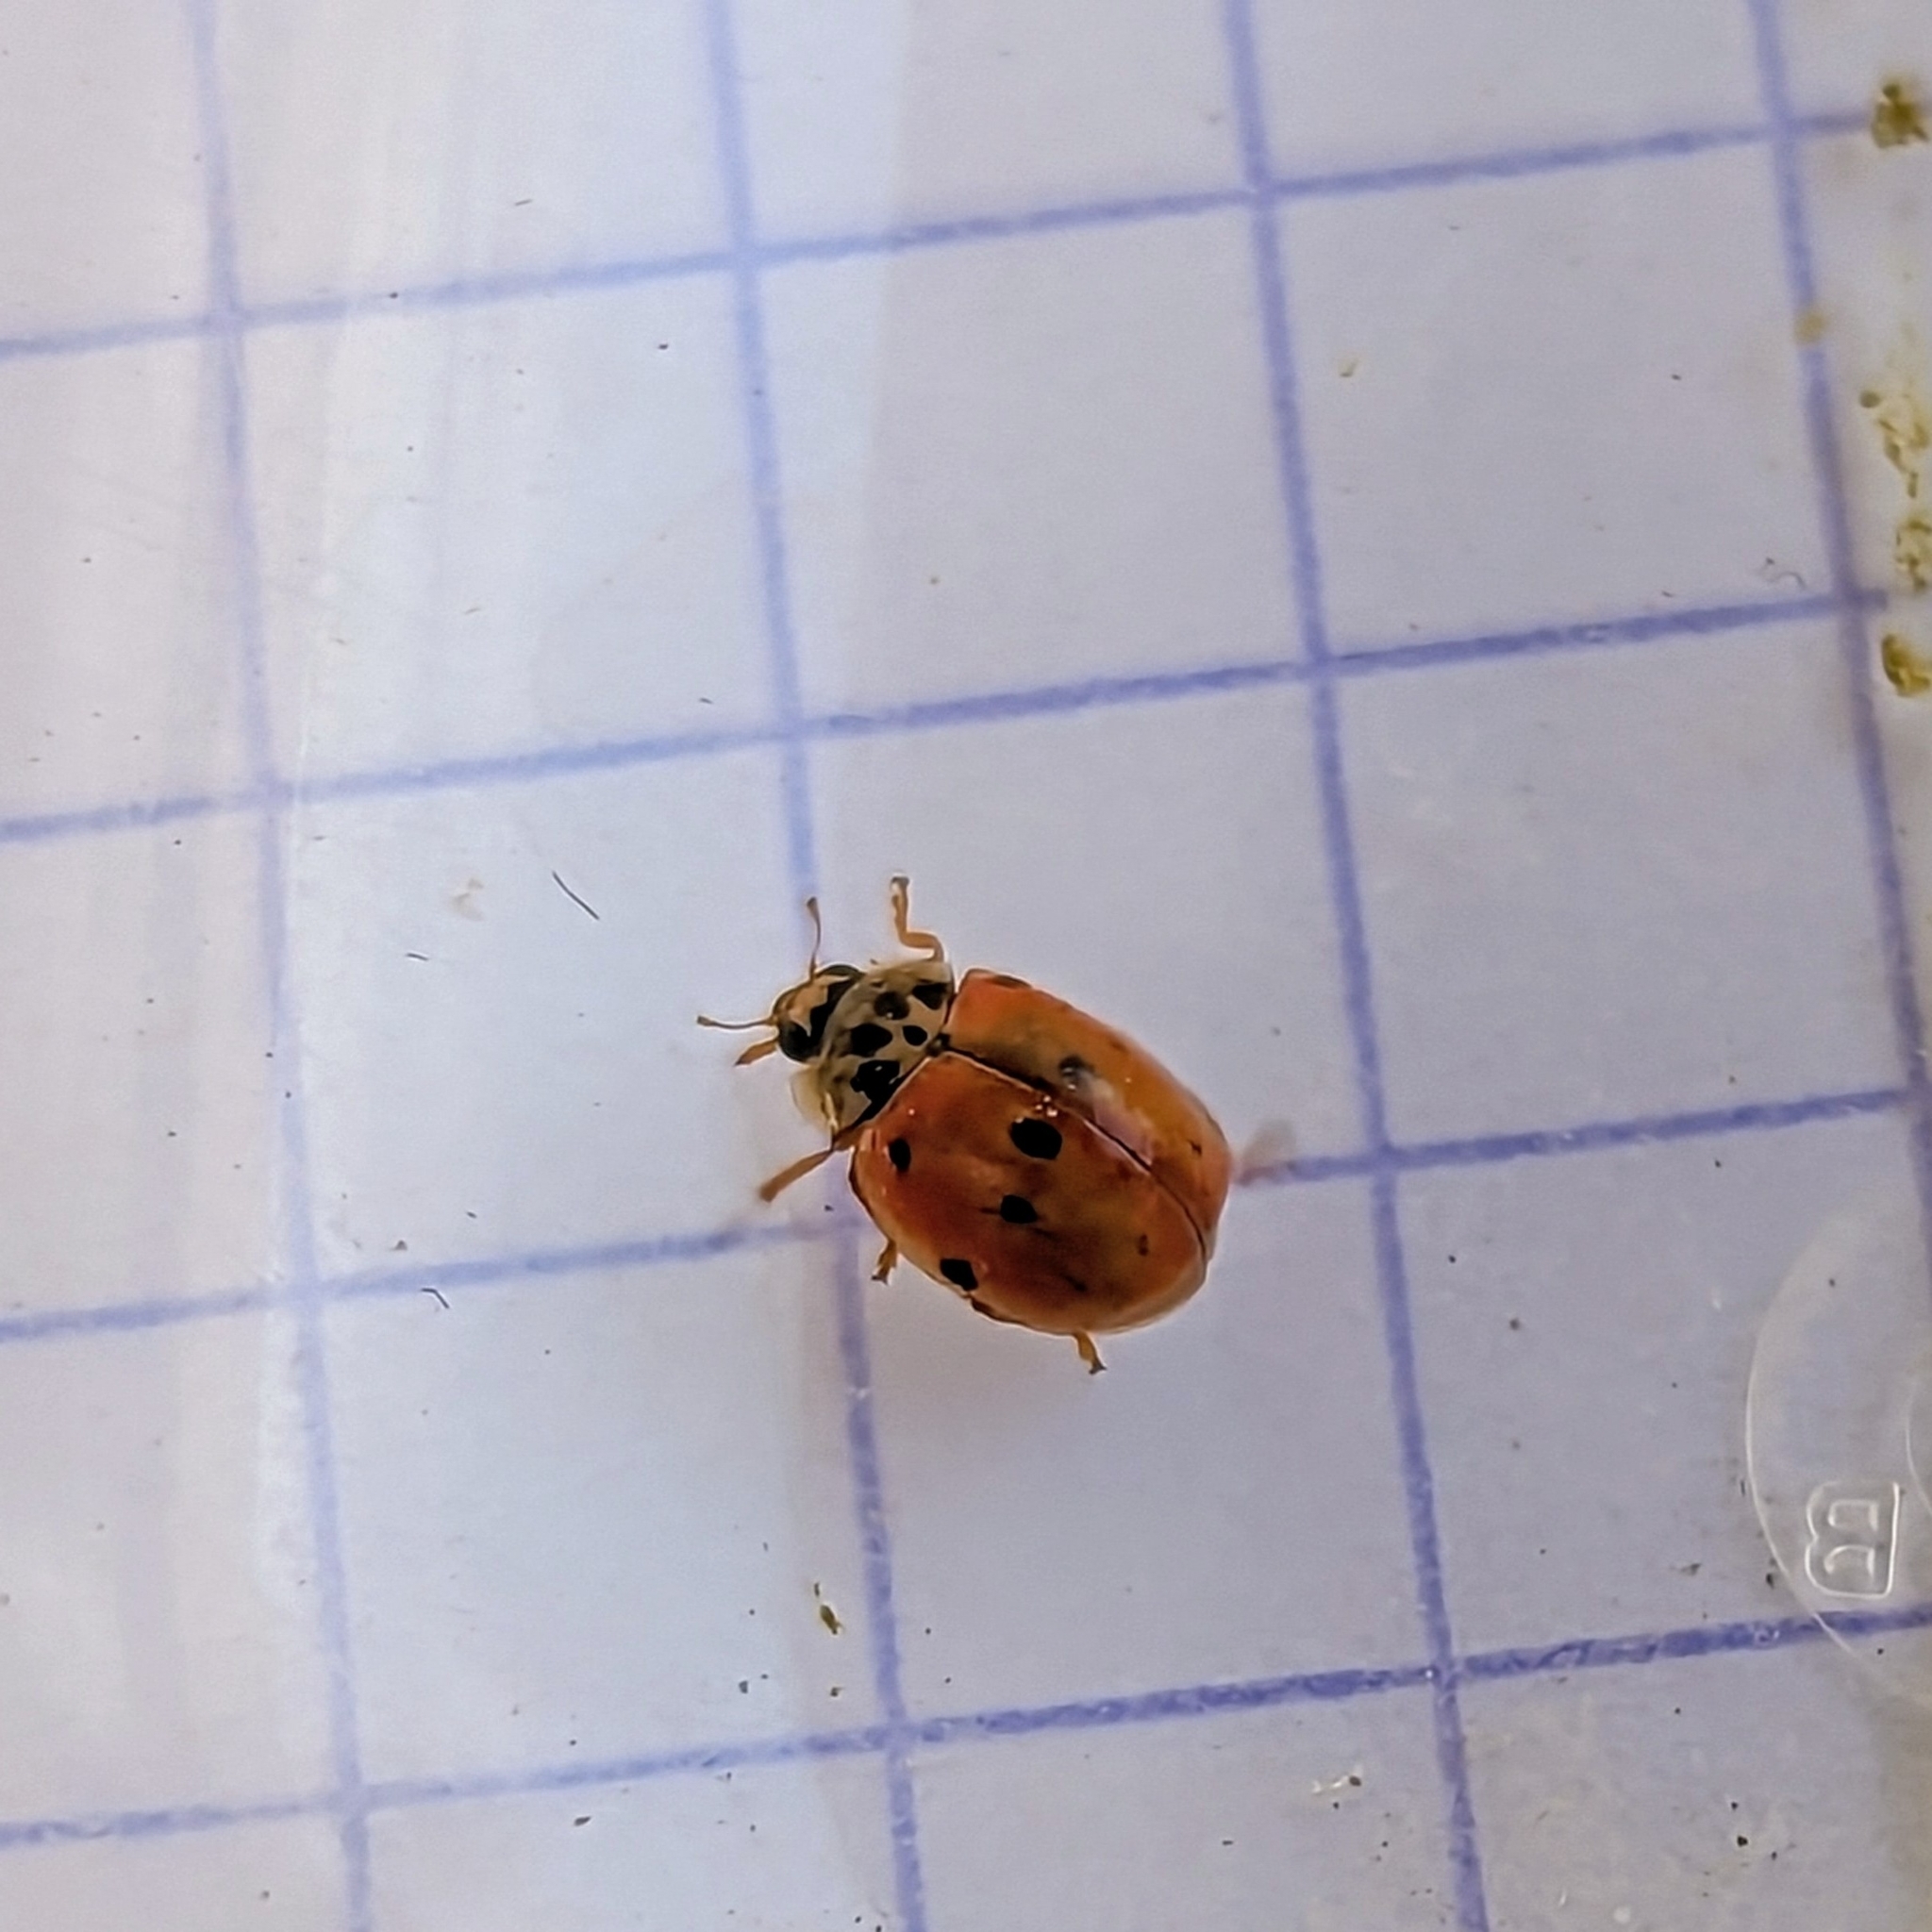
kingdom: Animalia
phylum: Arthropoda
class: Insecta
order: Coleoptera
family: Coccinellidae
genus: Adalia
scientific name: Adalia decempunctata
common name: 10-spot ladybird
